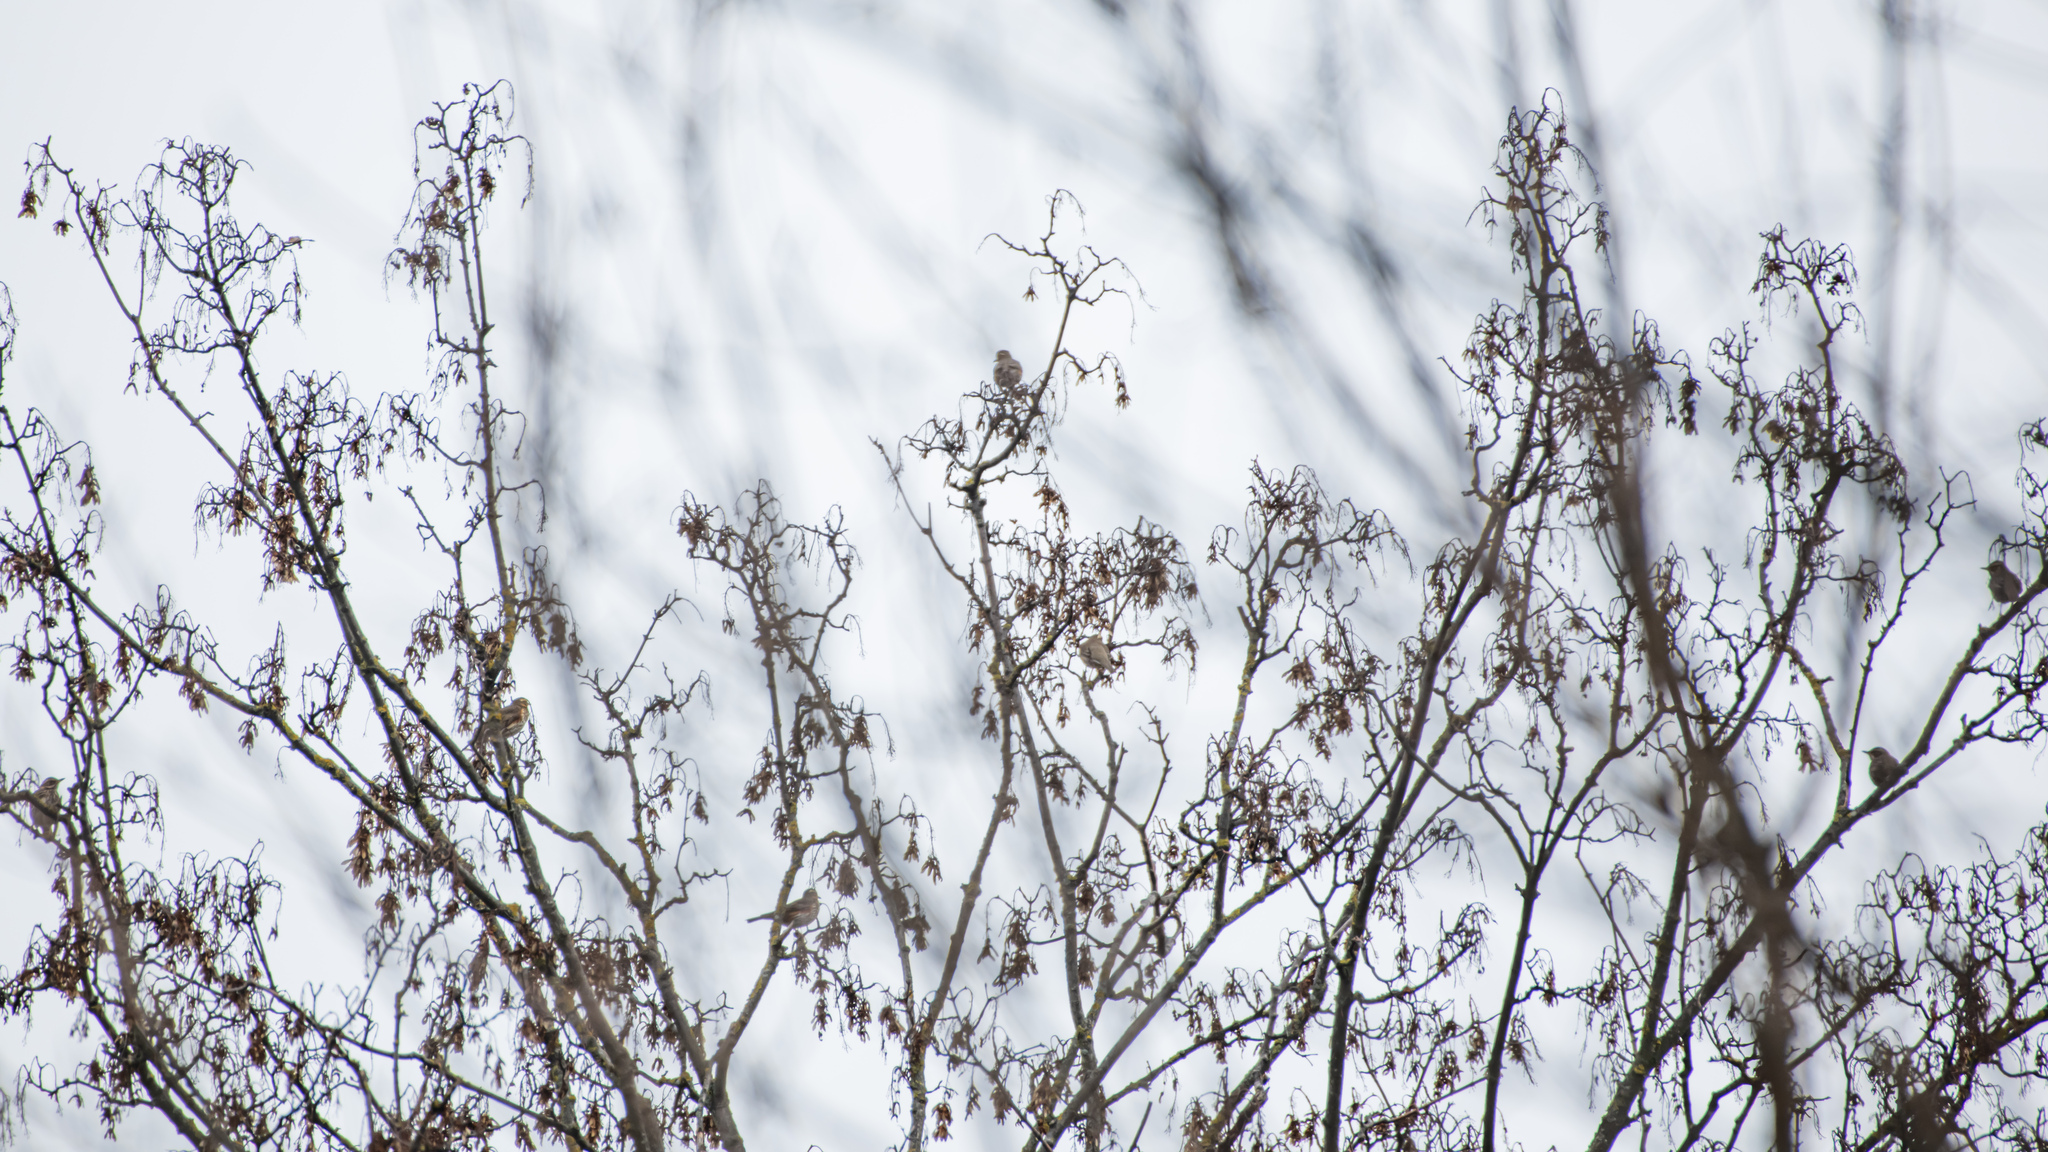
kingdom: Animalia
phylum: Chordata
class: Aves
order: Passeriformes
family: Turdidae
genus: Turdus
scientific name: Turdus iliacus
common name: Redwing
